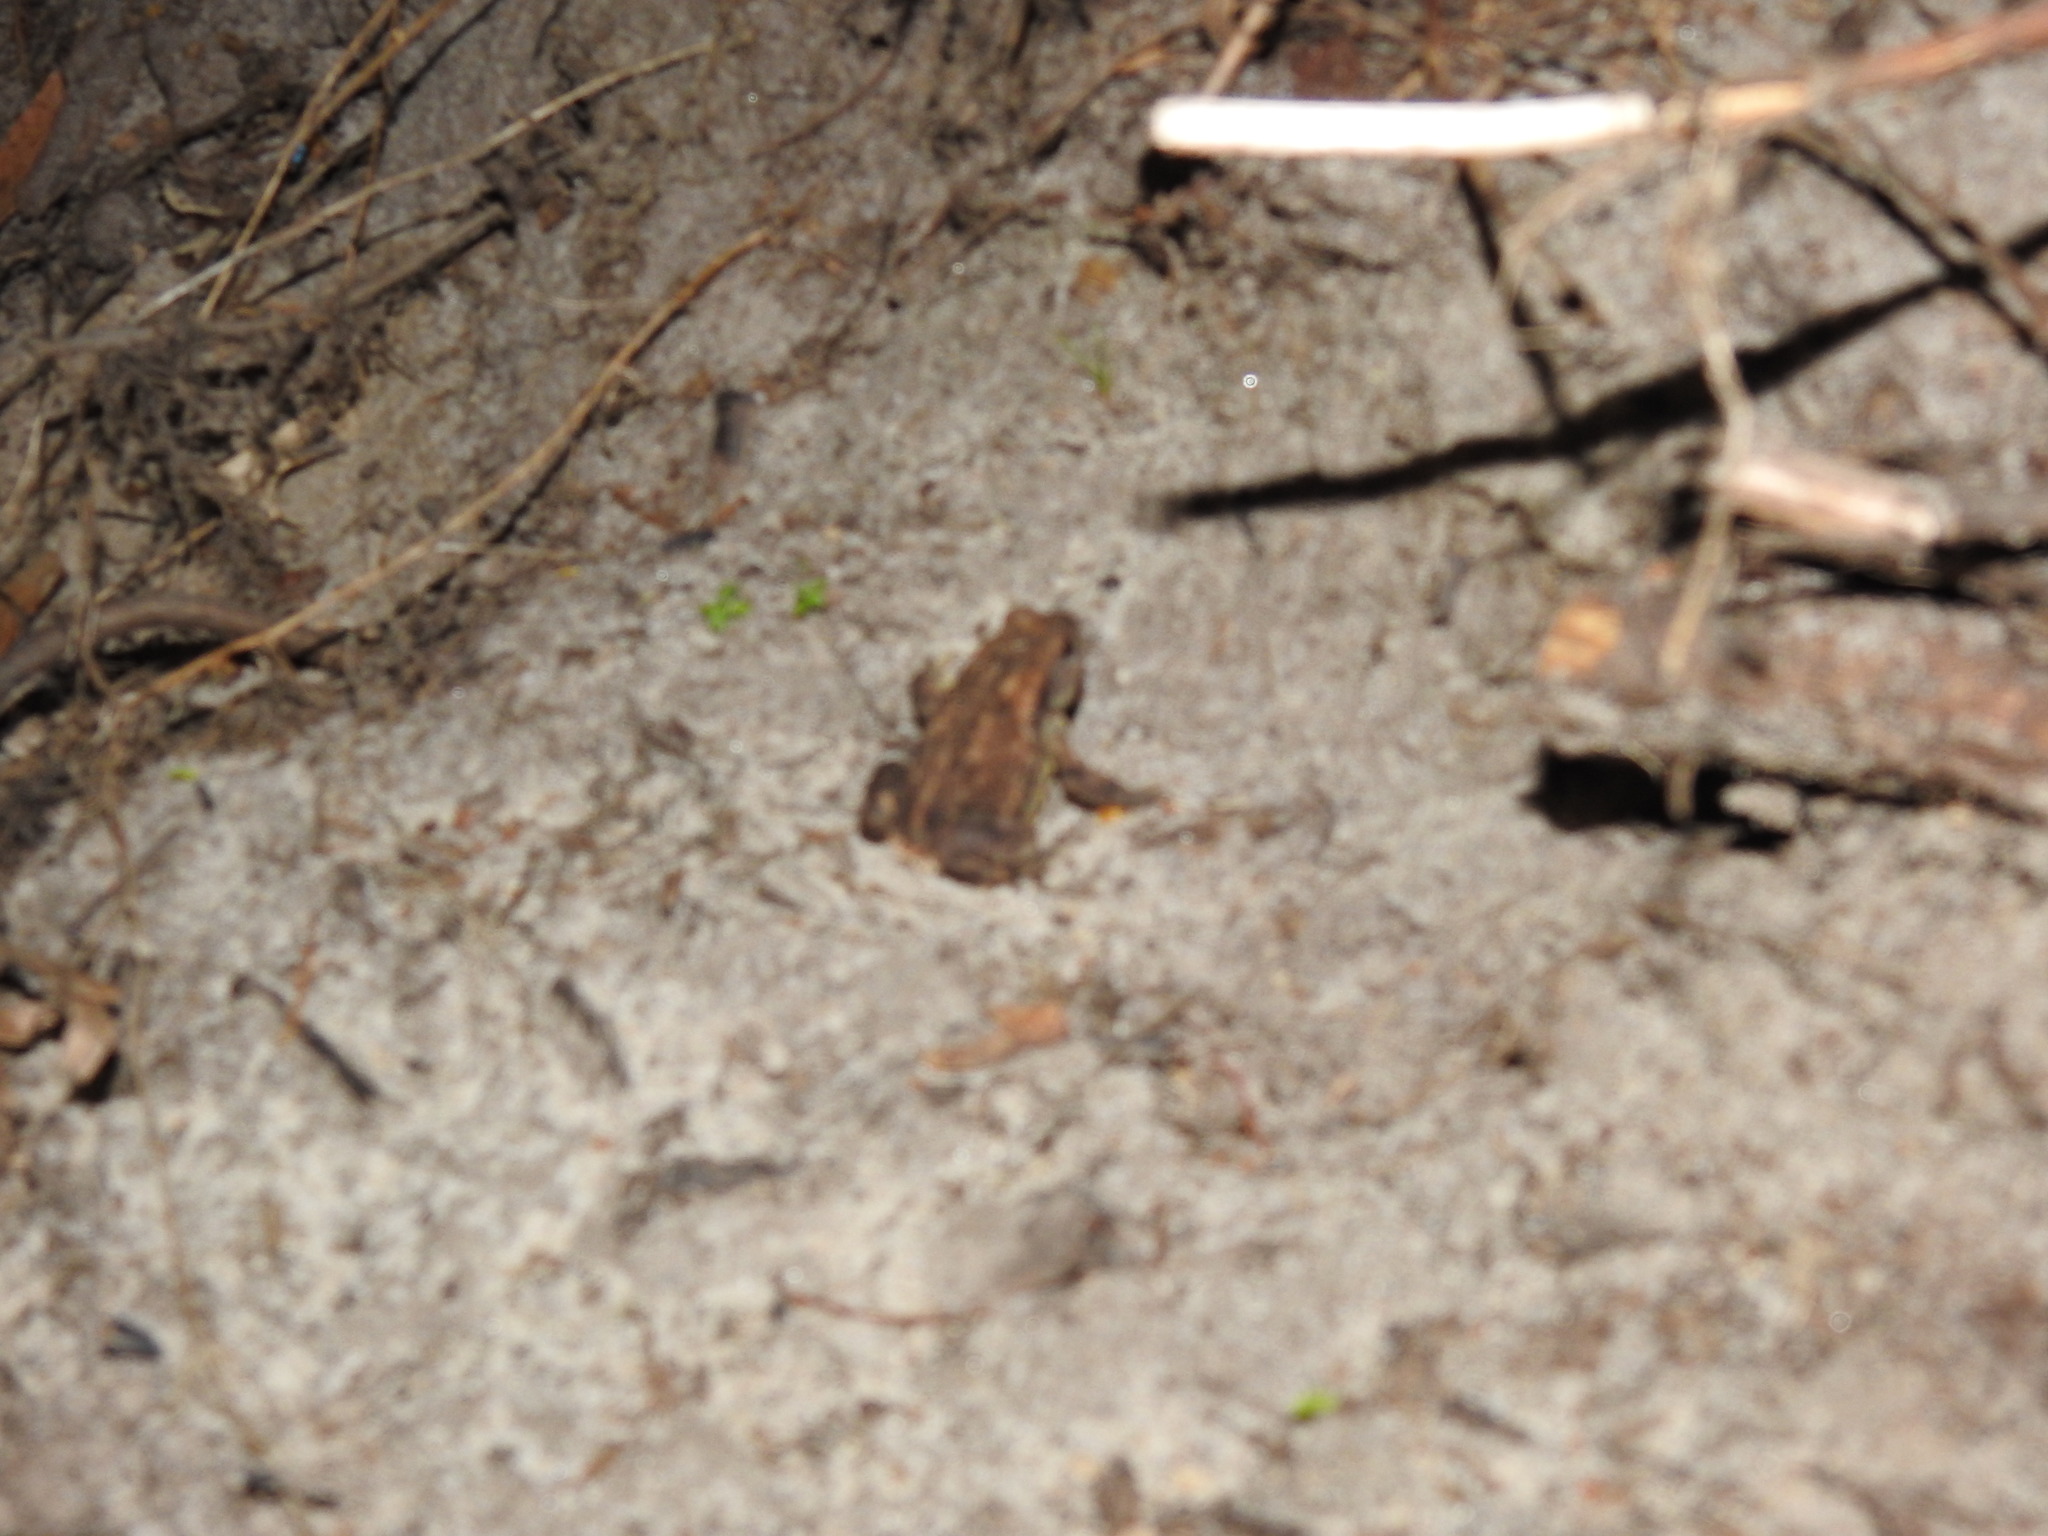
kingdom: Animalia
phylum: Chordata
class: Amphibia
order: Anura
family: Bufonidae
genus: Bufo
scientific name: Bufo spinosus
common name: Western common toad
